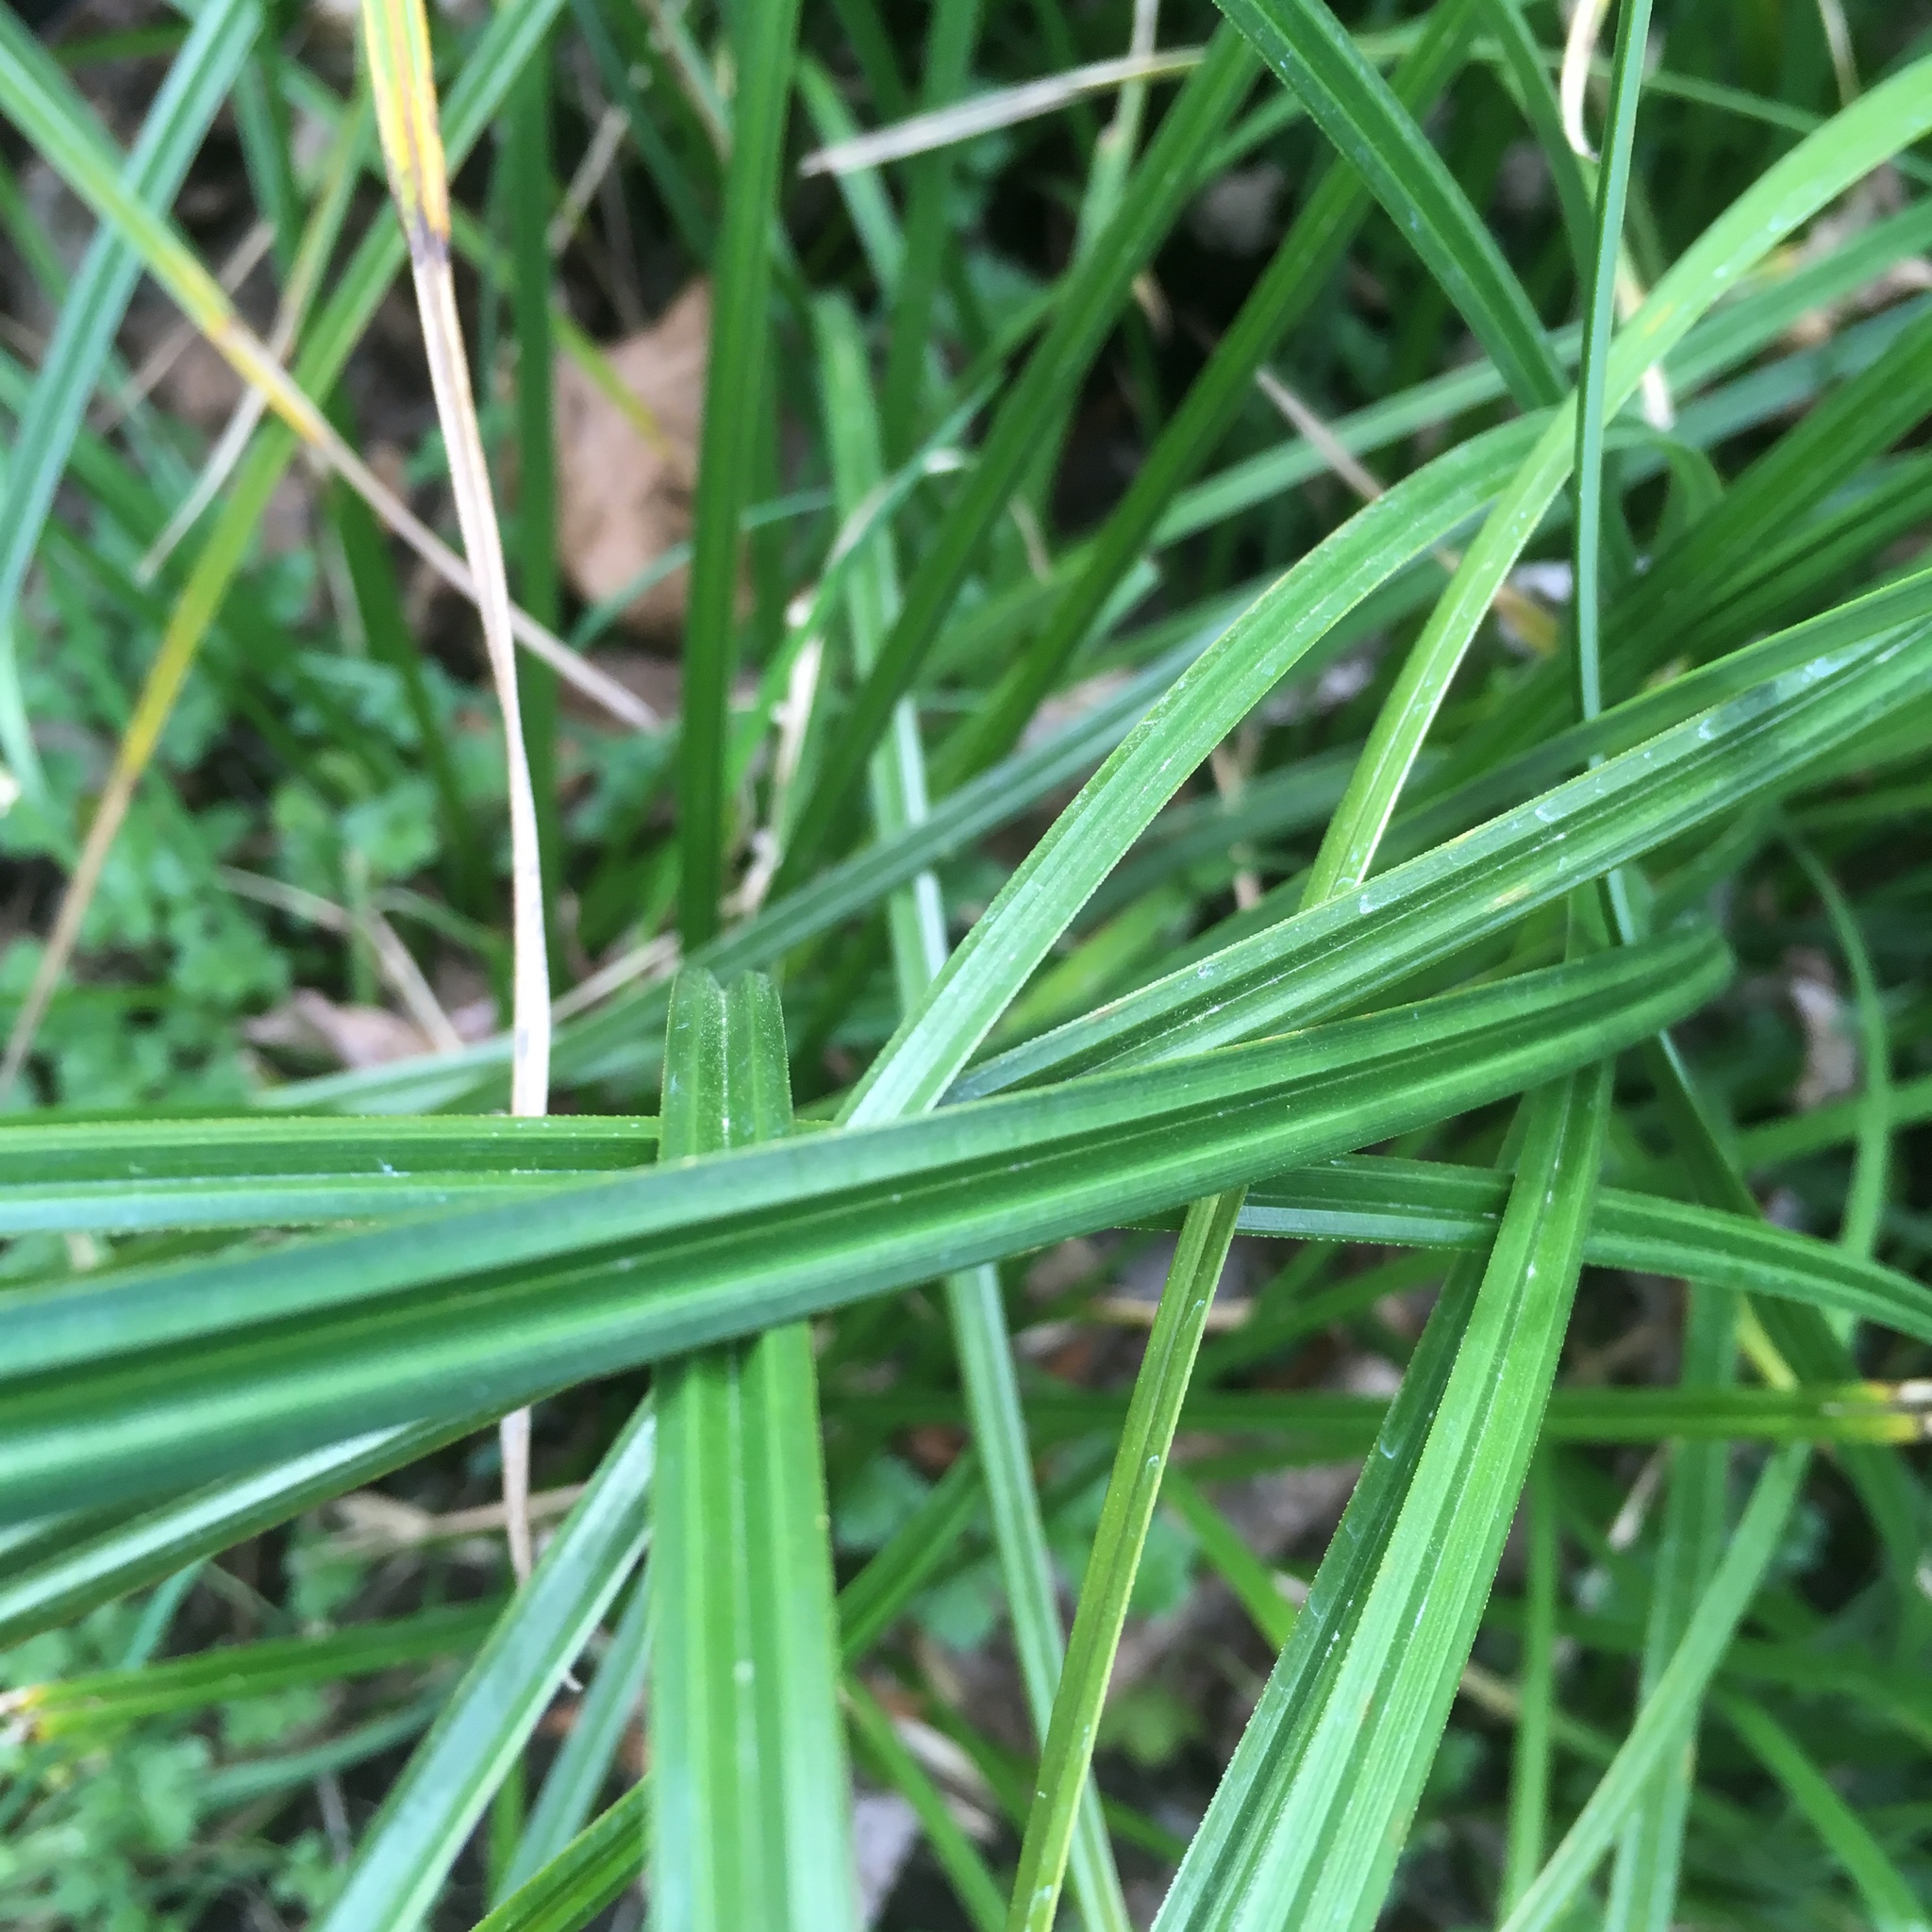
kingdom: Plantae
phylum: Tracheophyta
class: Liliopsida
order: Poales
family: Cyperaceae
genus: Carex
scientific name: Carex obnupta
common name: Slough sedge
